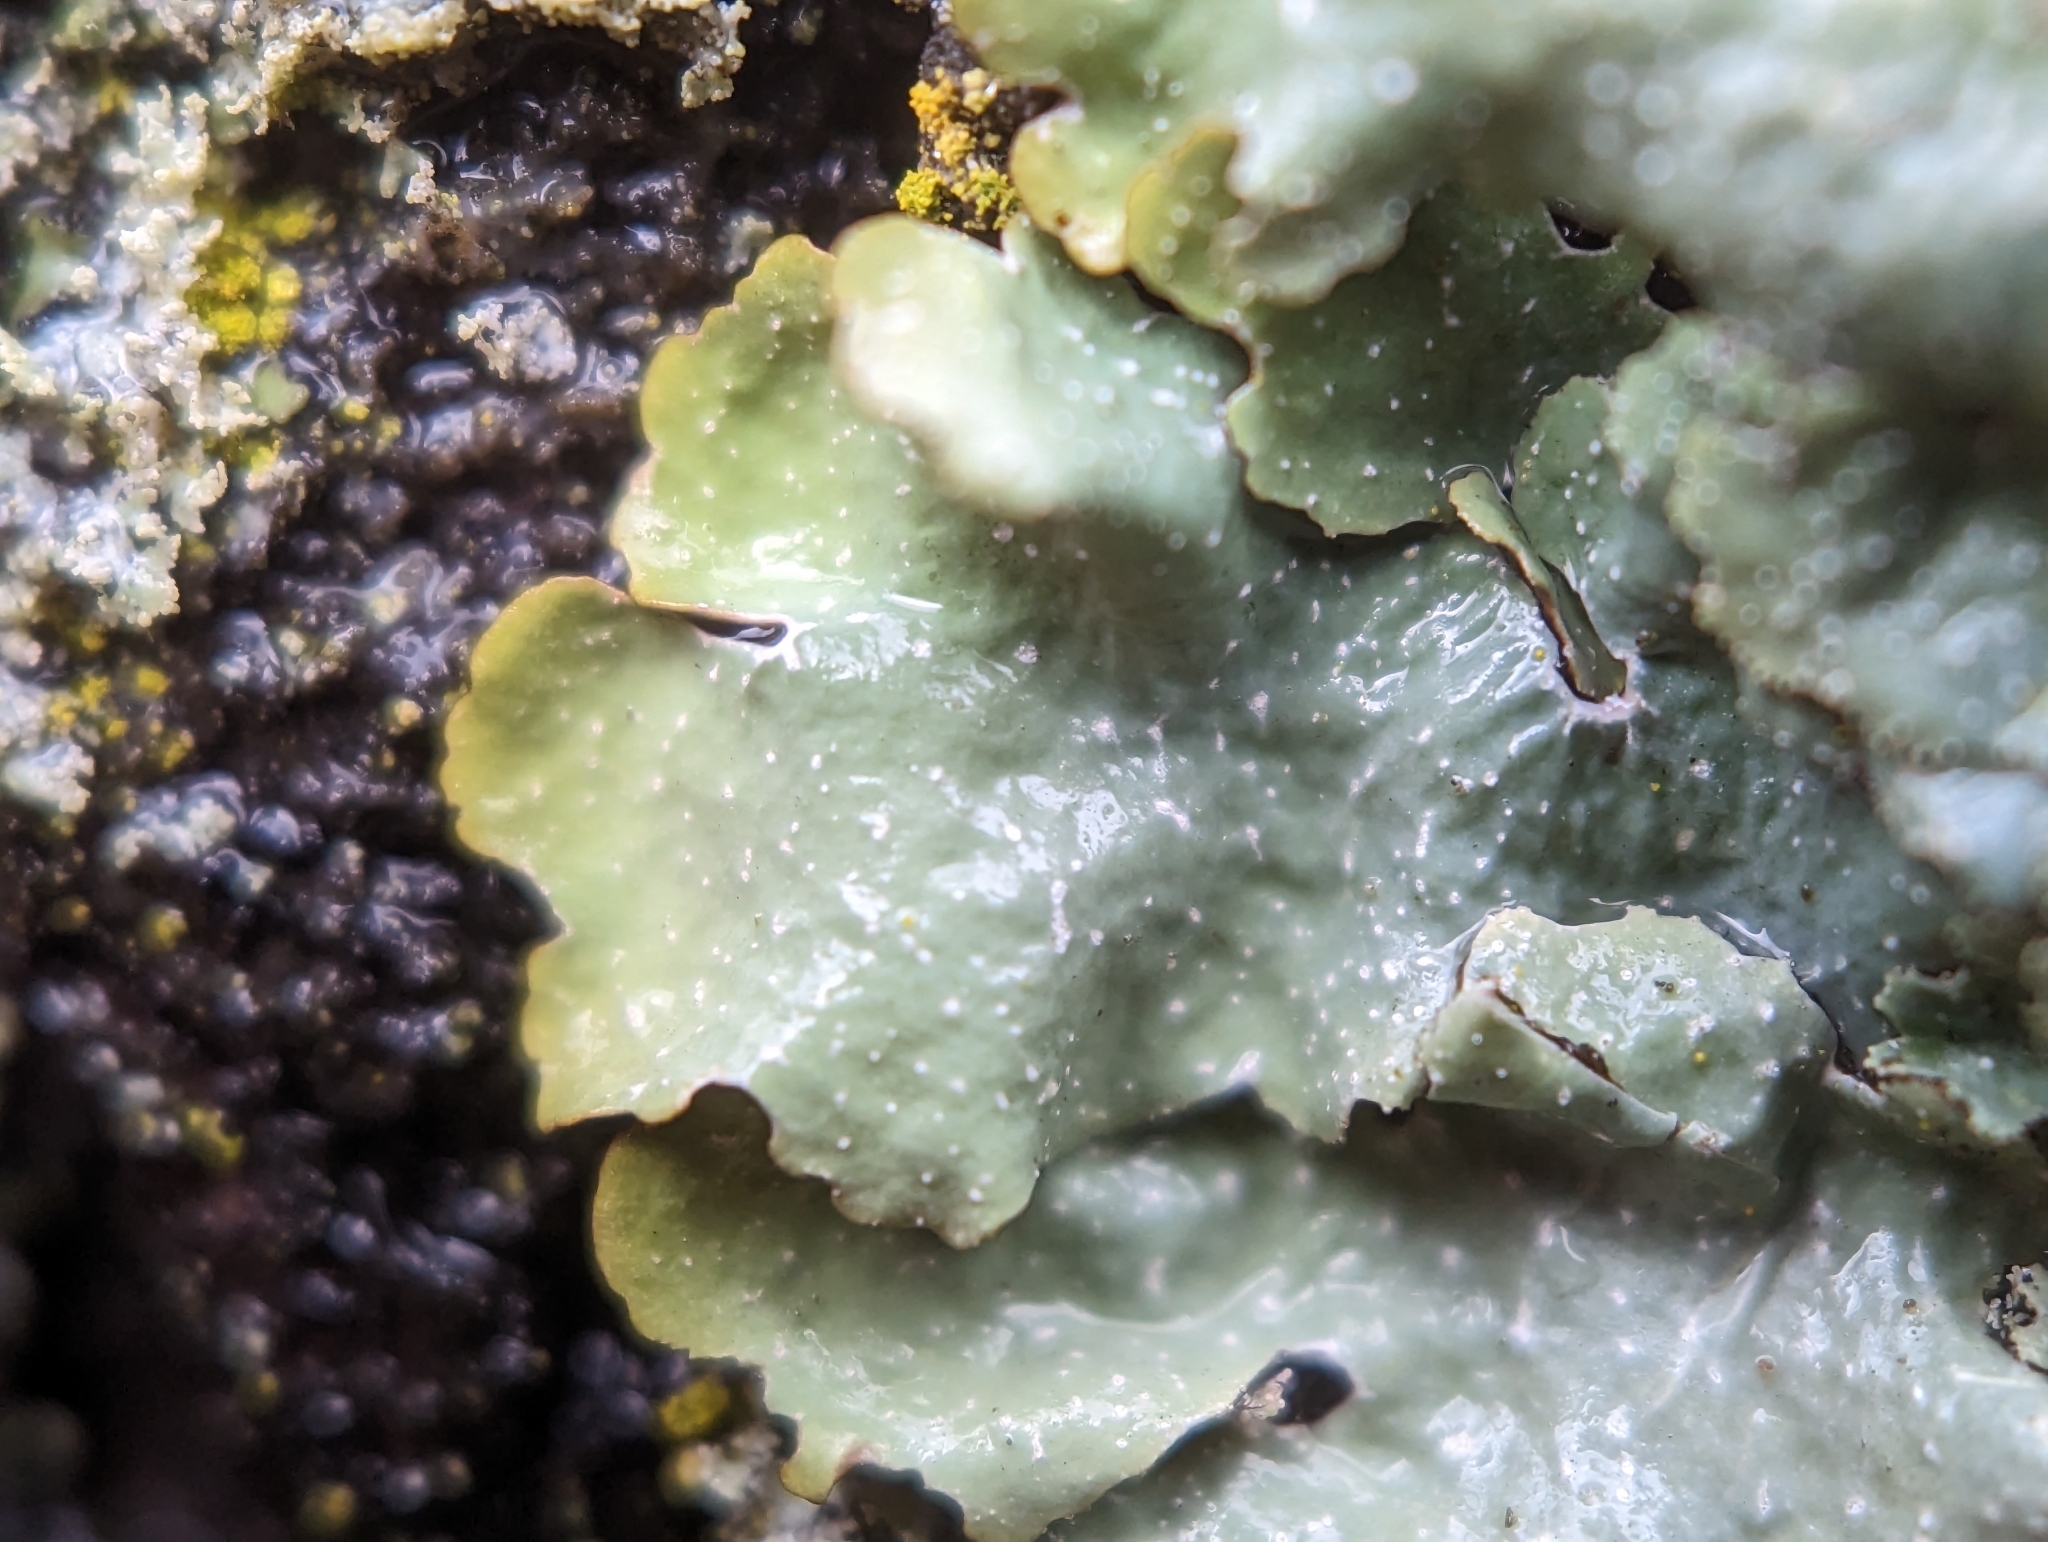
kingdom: Fungi
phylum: Ascomycota
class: Lecanoromycetes
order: Lecanorales
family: Parmeliaceae
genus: Punctelia
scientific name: Punctelia rudecta
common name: Rough speckled shield lichen
